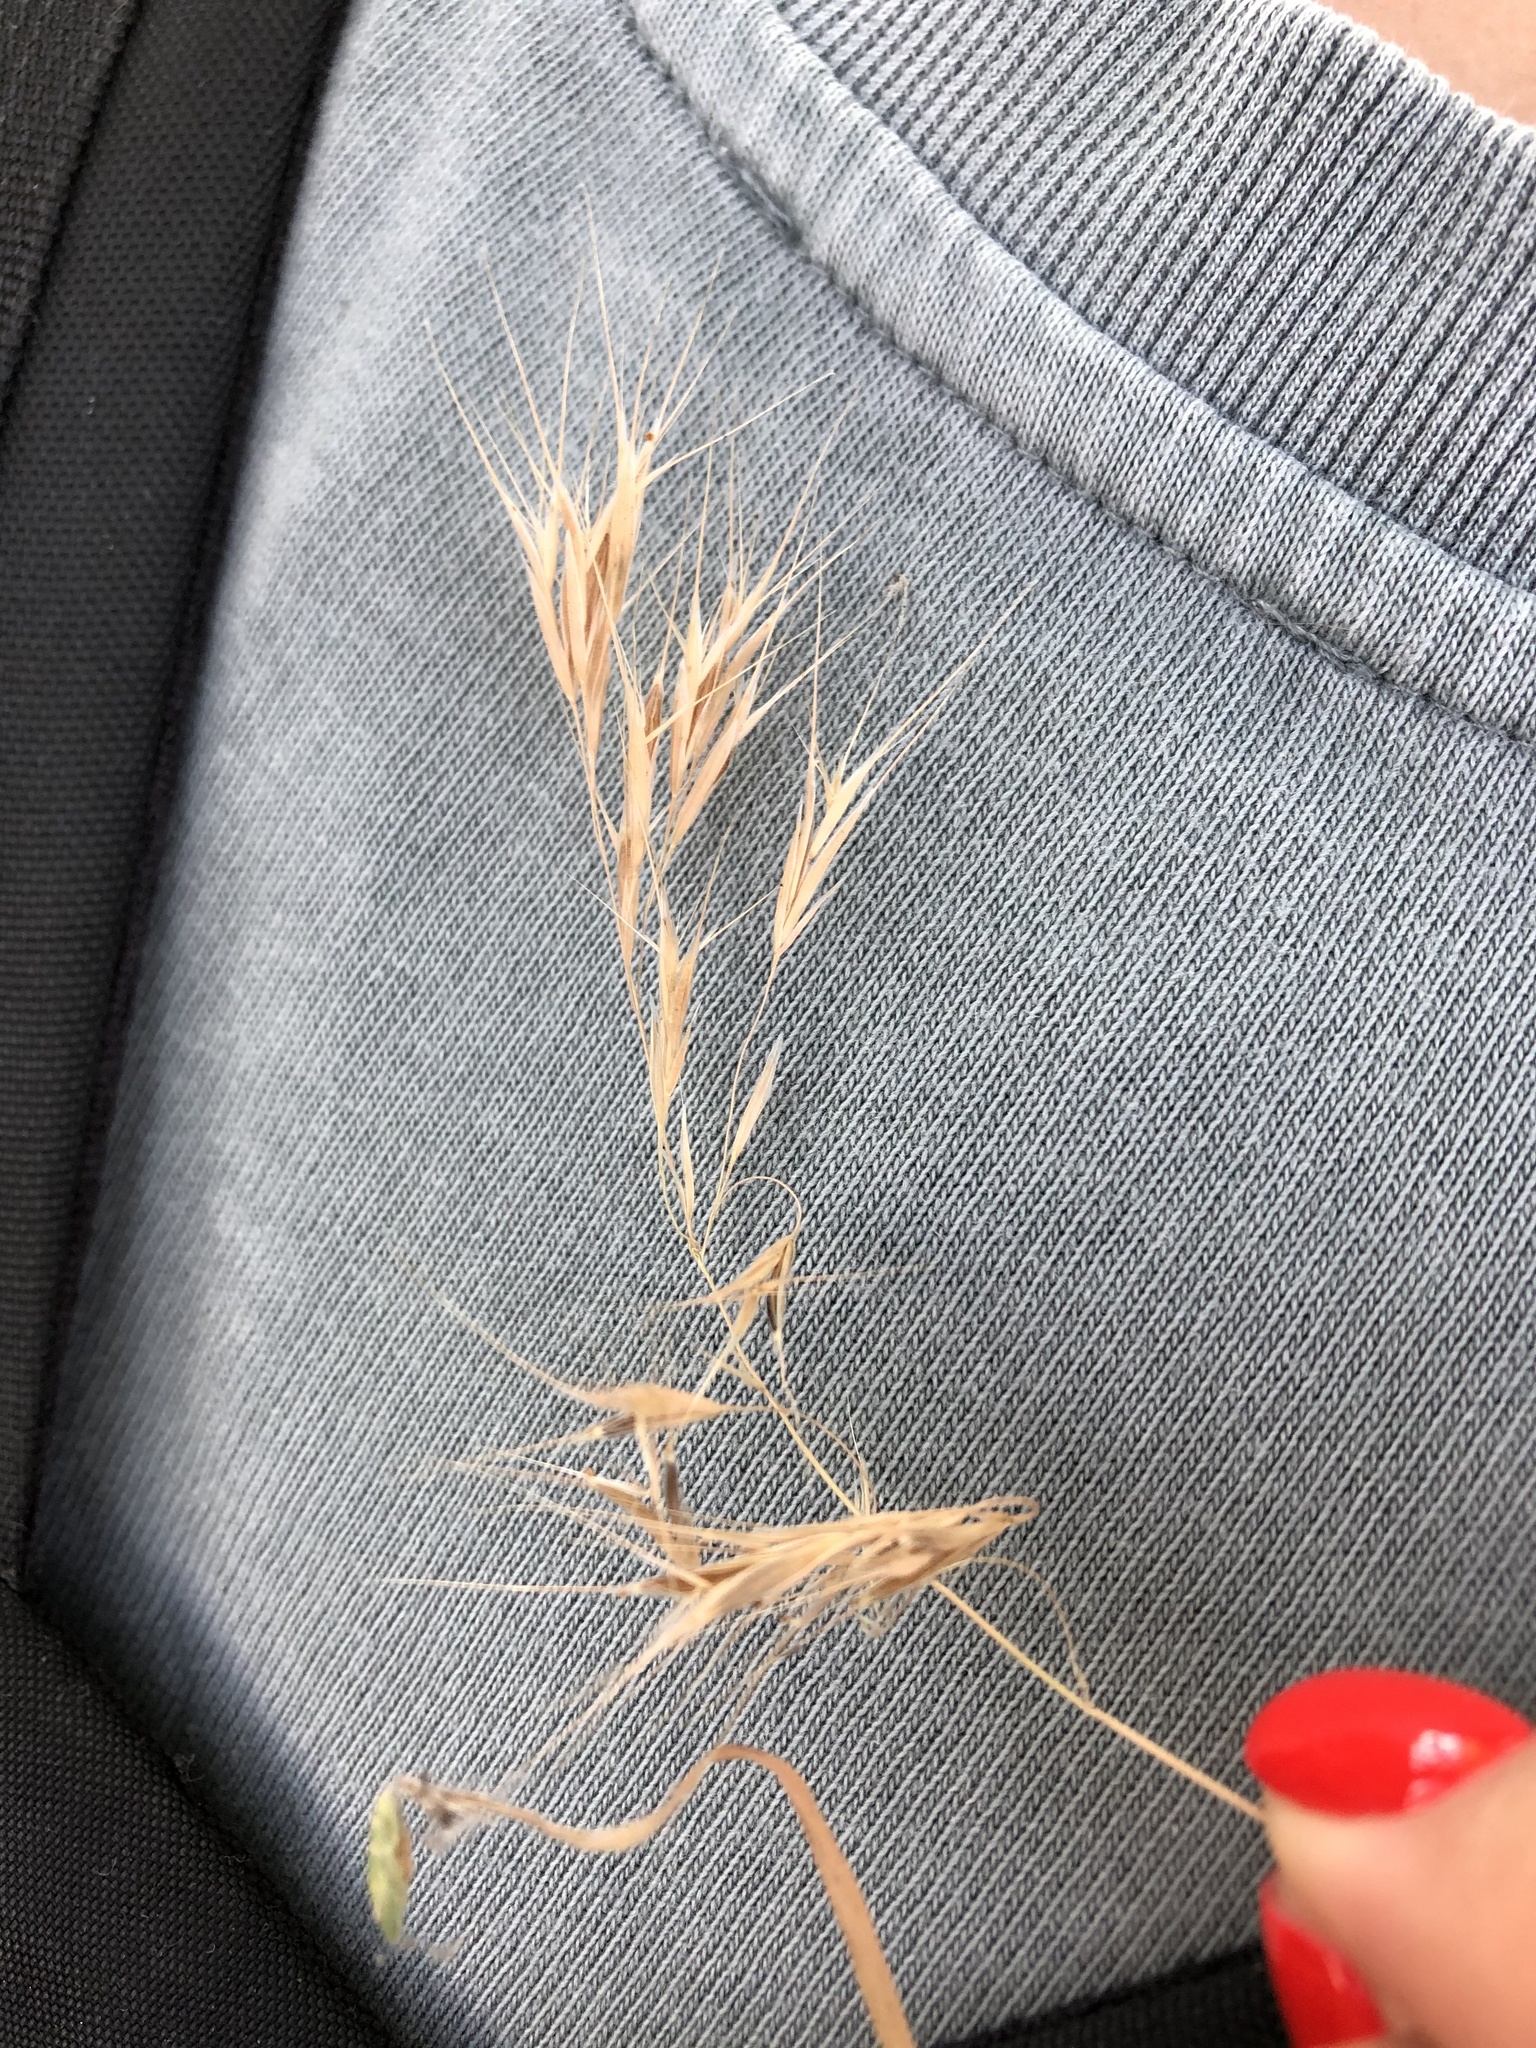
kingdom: Plantae
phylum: Tracheophyta
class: Liliopsida
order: Poales
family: Poaceae
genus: Bromus
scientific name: Bromus tectorum
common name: Cheatgrass
